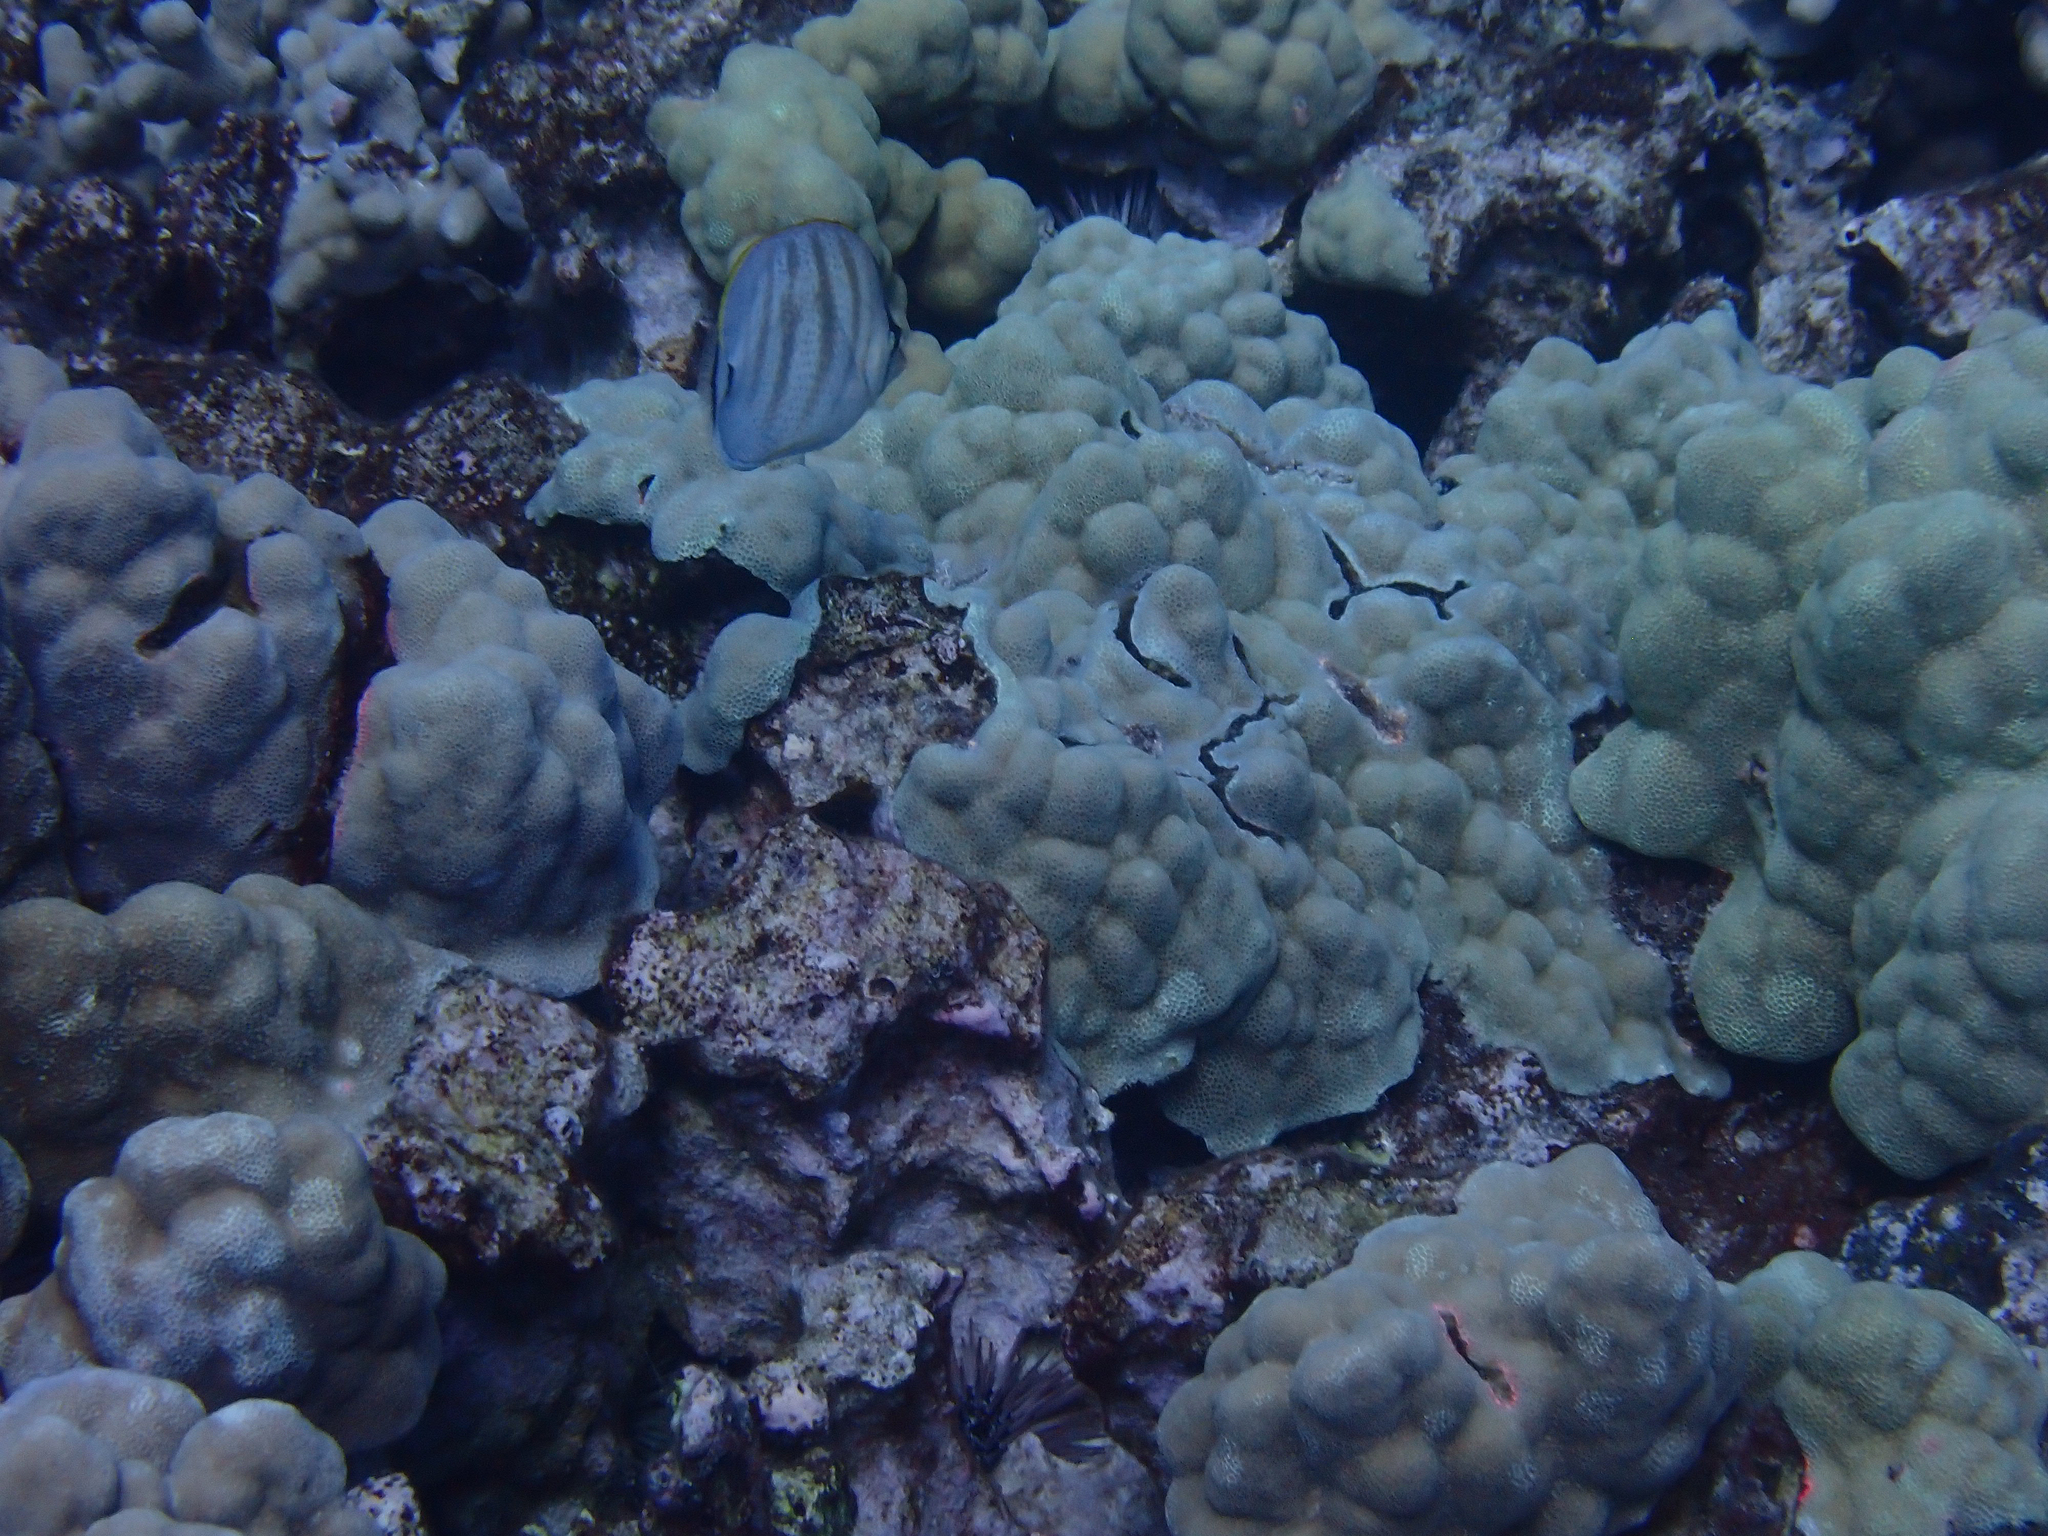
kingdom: Animalia
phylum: Chordata
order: Perciformes
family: Chaetodontidae
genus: Chaetodon
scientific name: Chaetodon multicinctus
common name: Multiband butterflyfish
